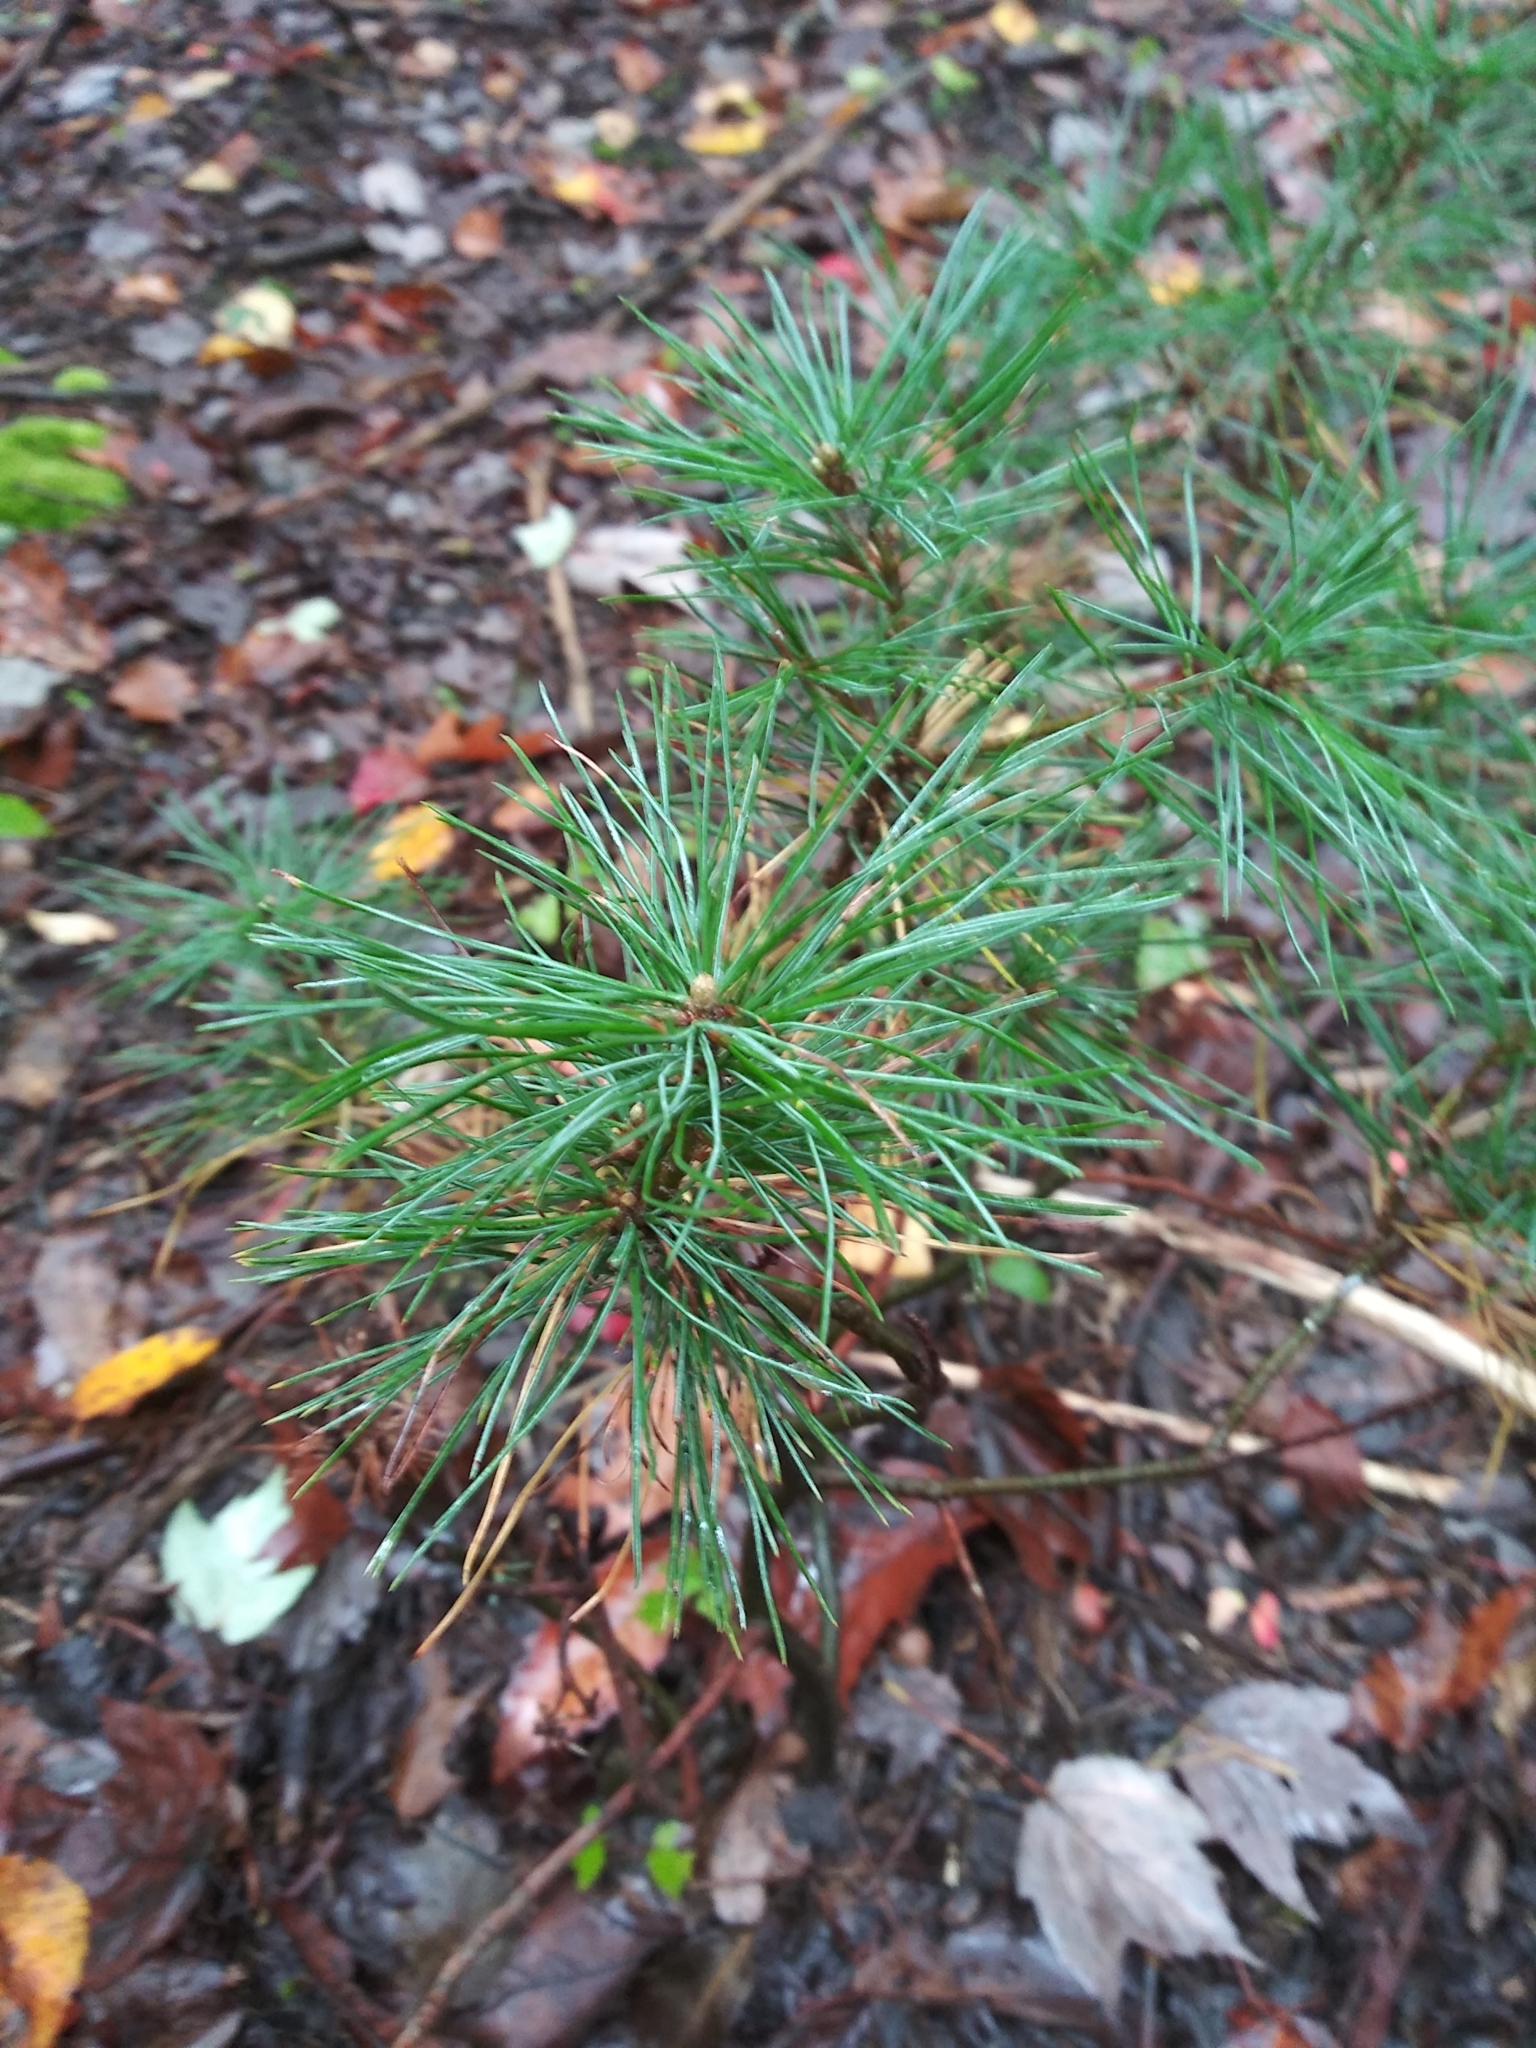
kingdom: Plantae
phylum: Tracheophyta
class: Pinopsida
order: Pinales
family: Pinaceae
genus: Pinus
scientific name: Pinus strobus
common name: Weymouth pine
